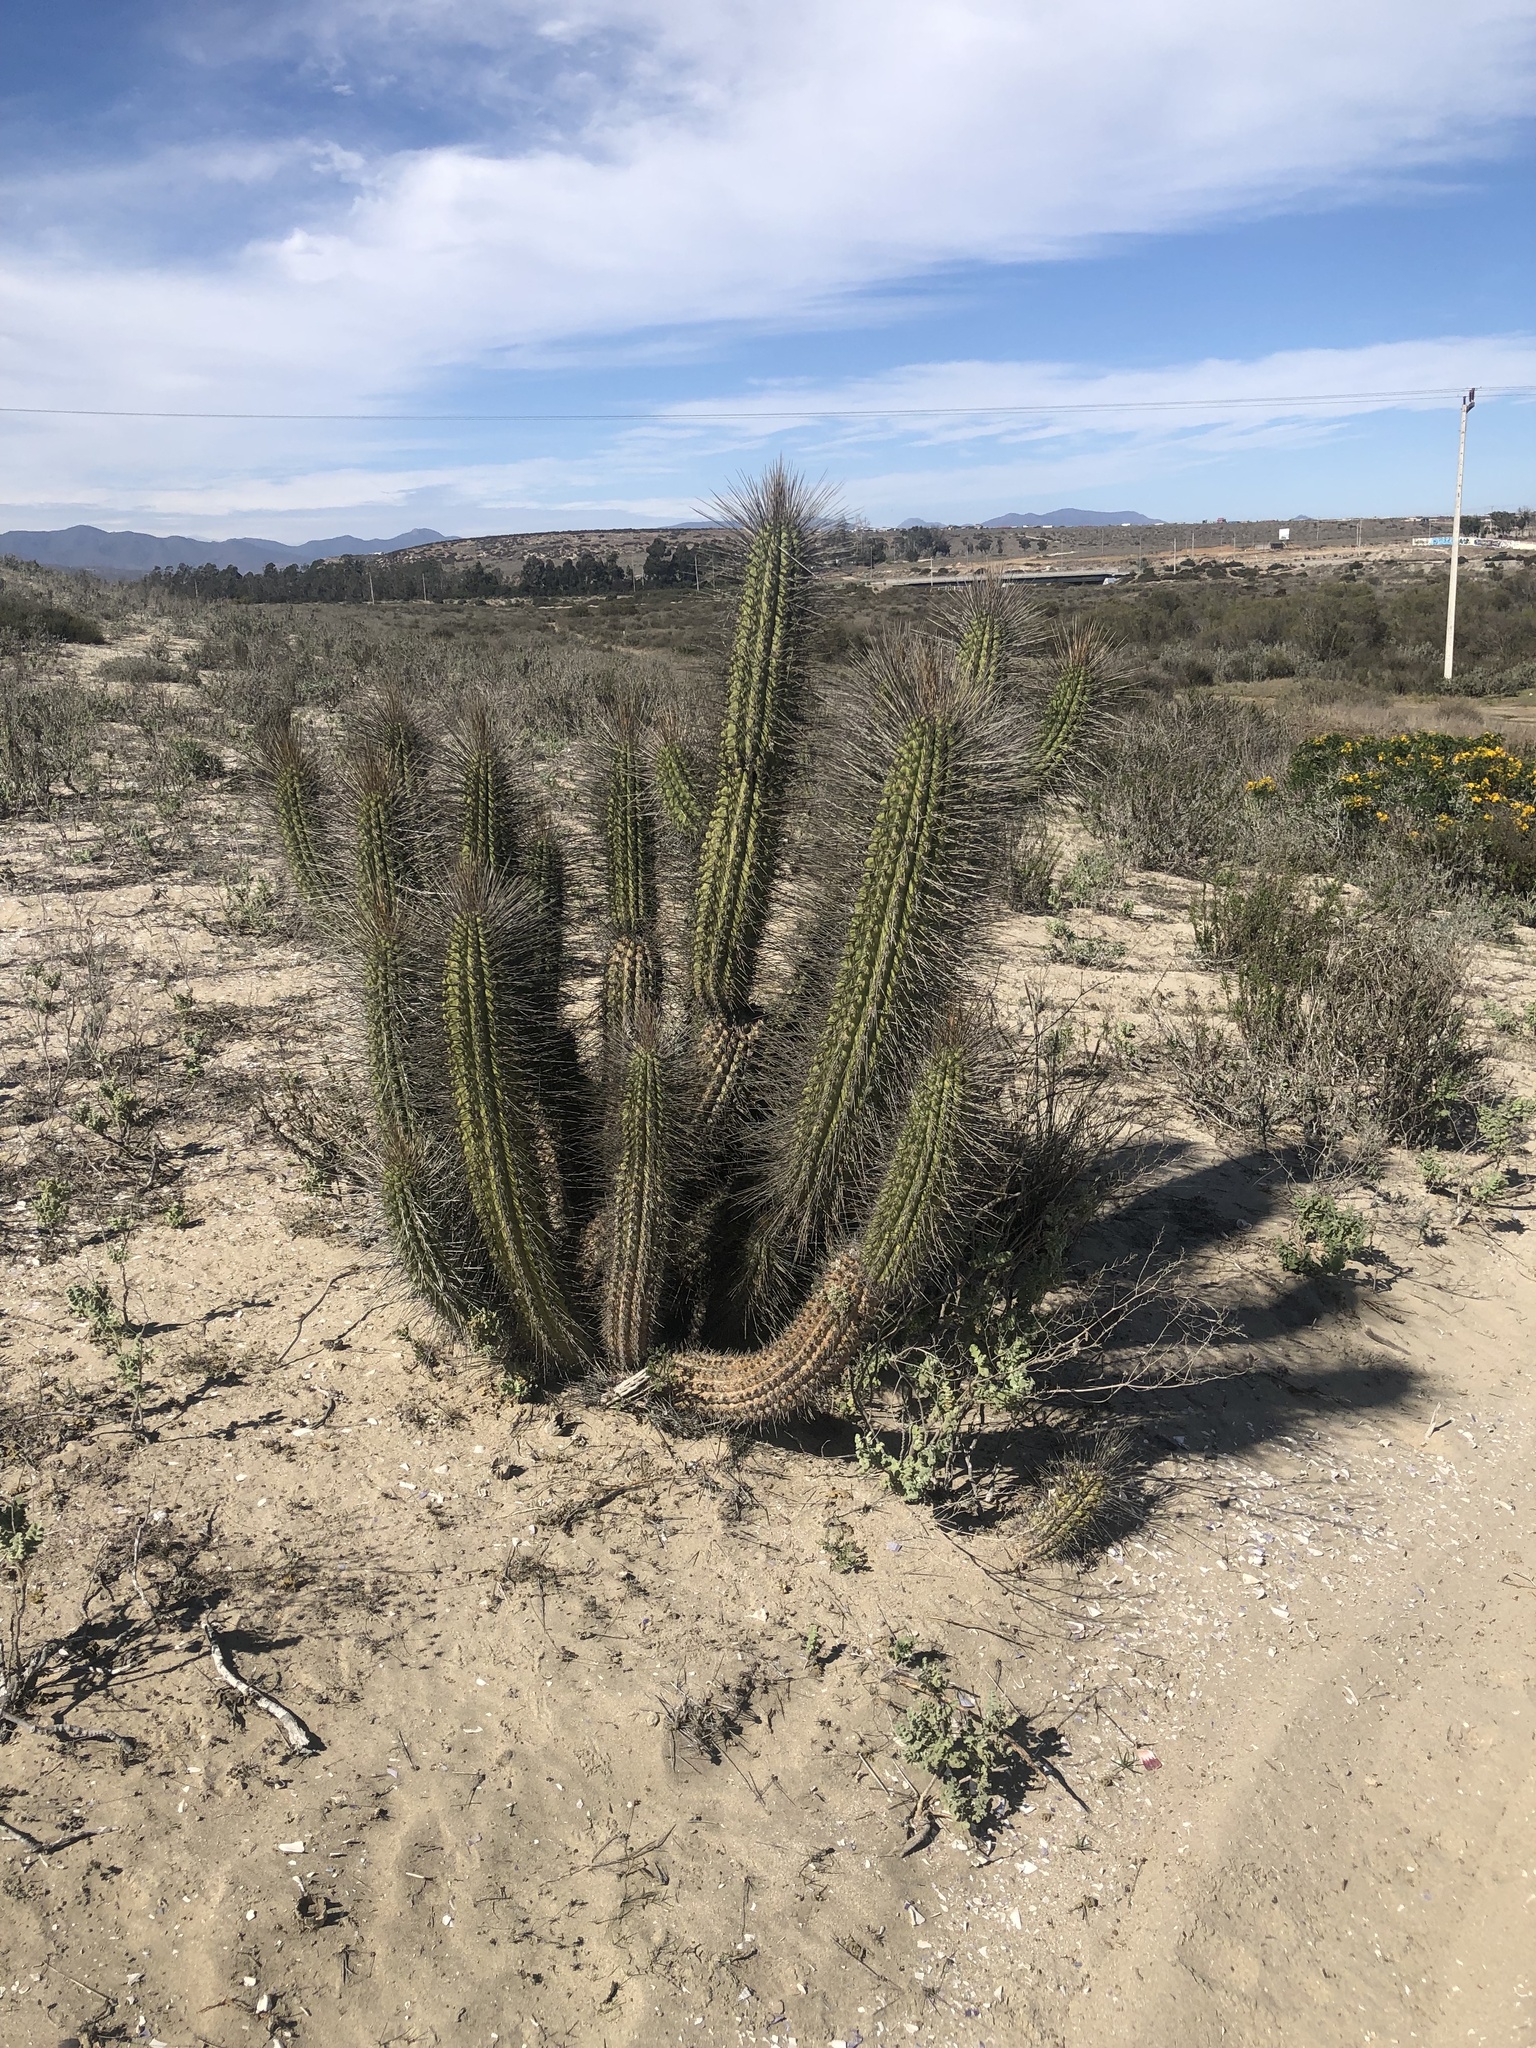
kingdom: Plantae
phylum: Tracheophyta
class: Magnoliopsida
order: Caryophyllales
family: Cactaceae
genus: Eulychnia
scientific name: Eulychnia breviflora
